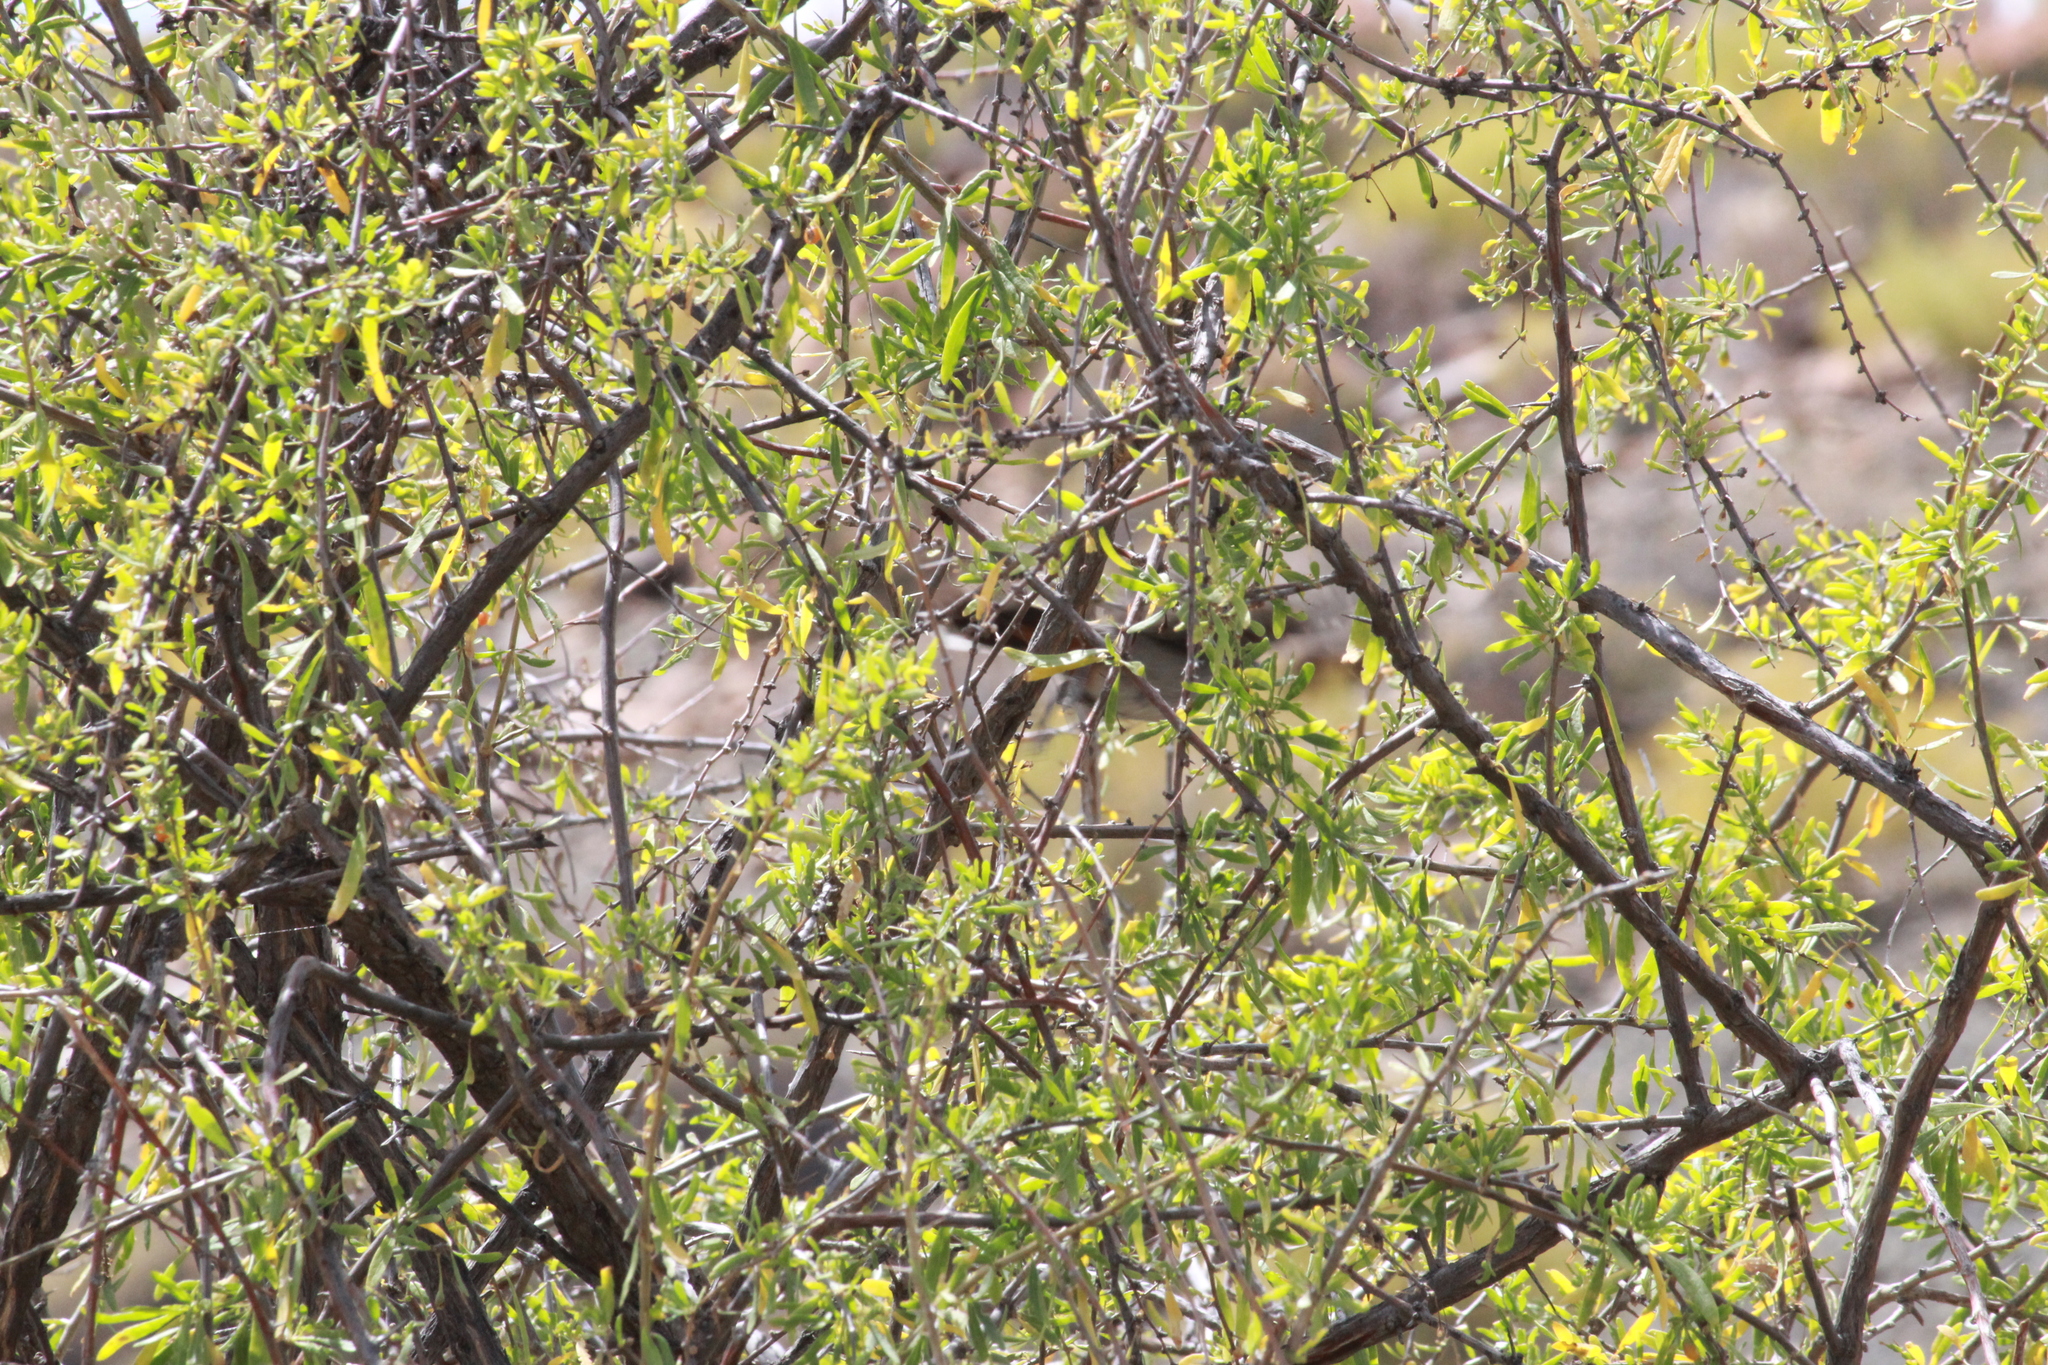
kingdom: Animalia
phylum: Chordata
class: Aves
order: Passeriformes
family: Sylviidae
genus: Curruca
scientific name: Curruca subcoerulea
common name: Chestnut-vented warbler
